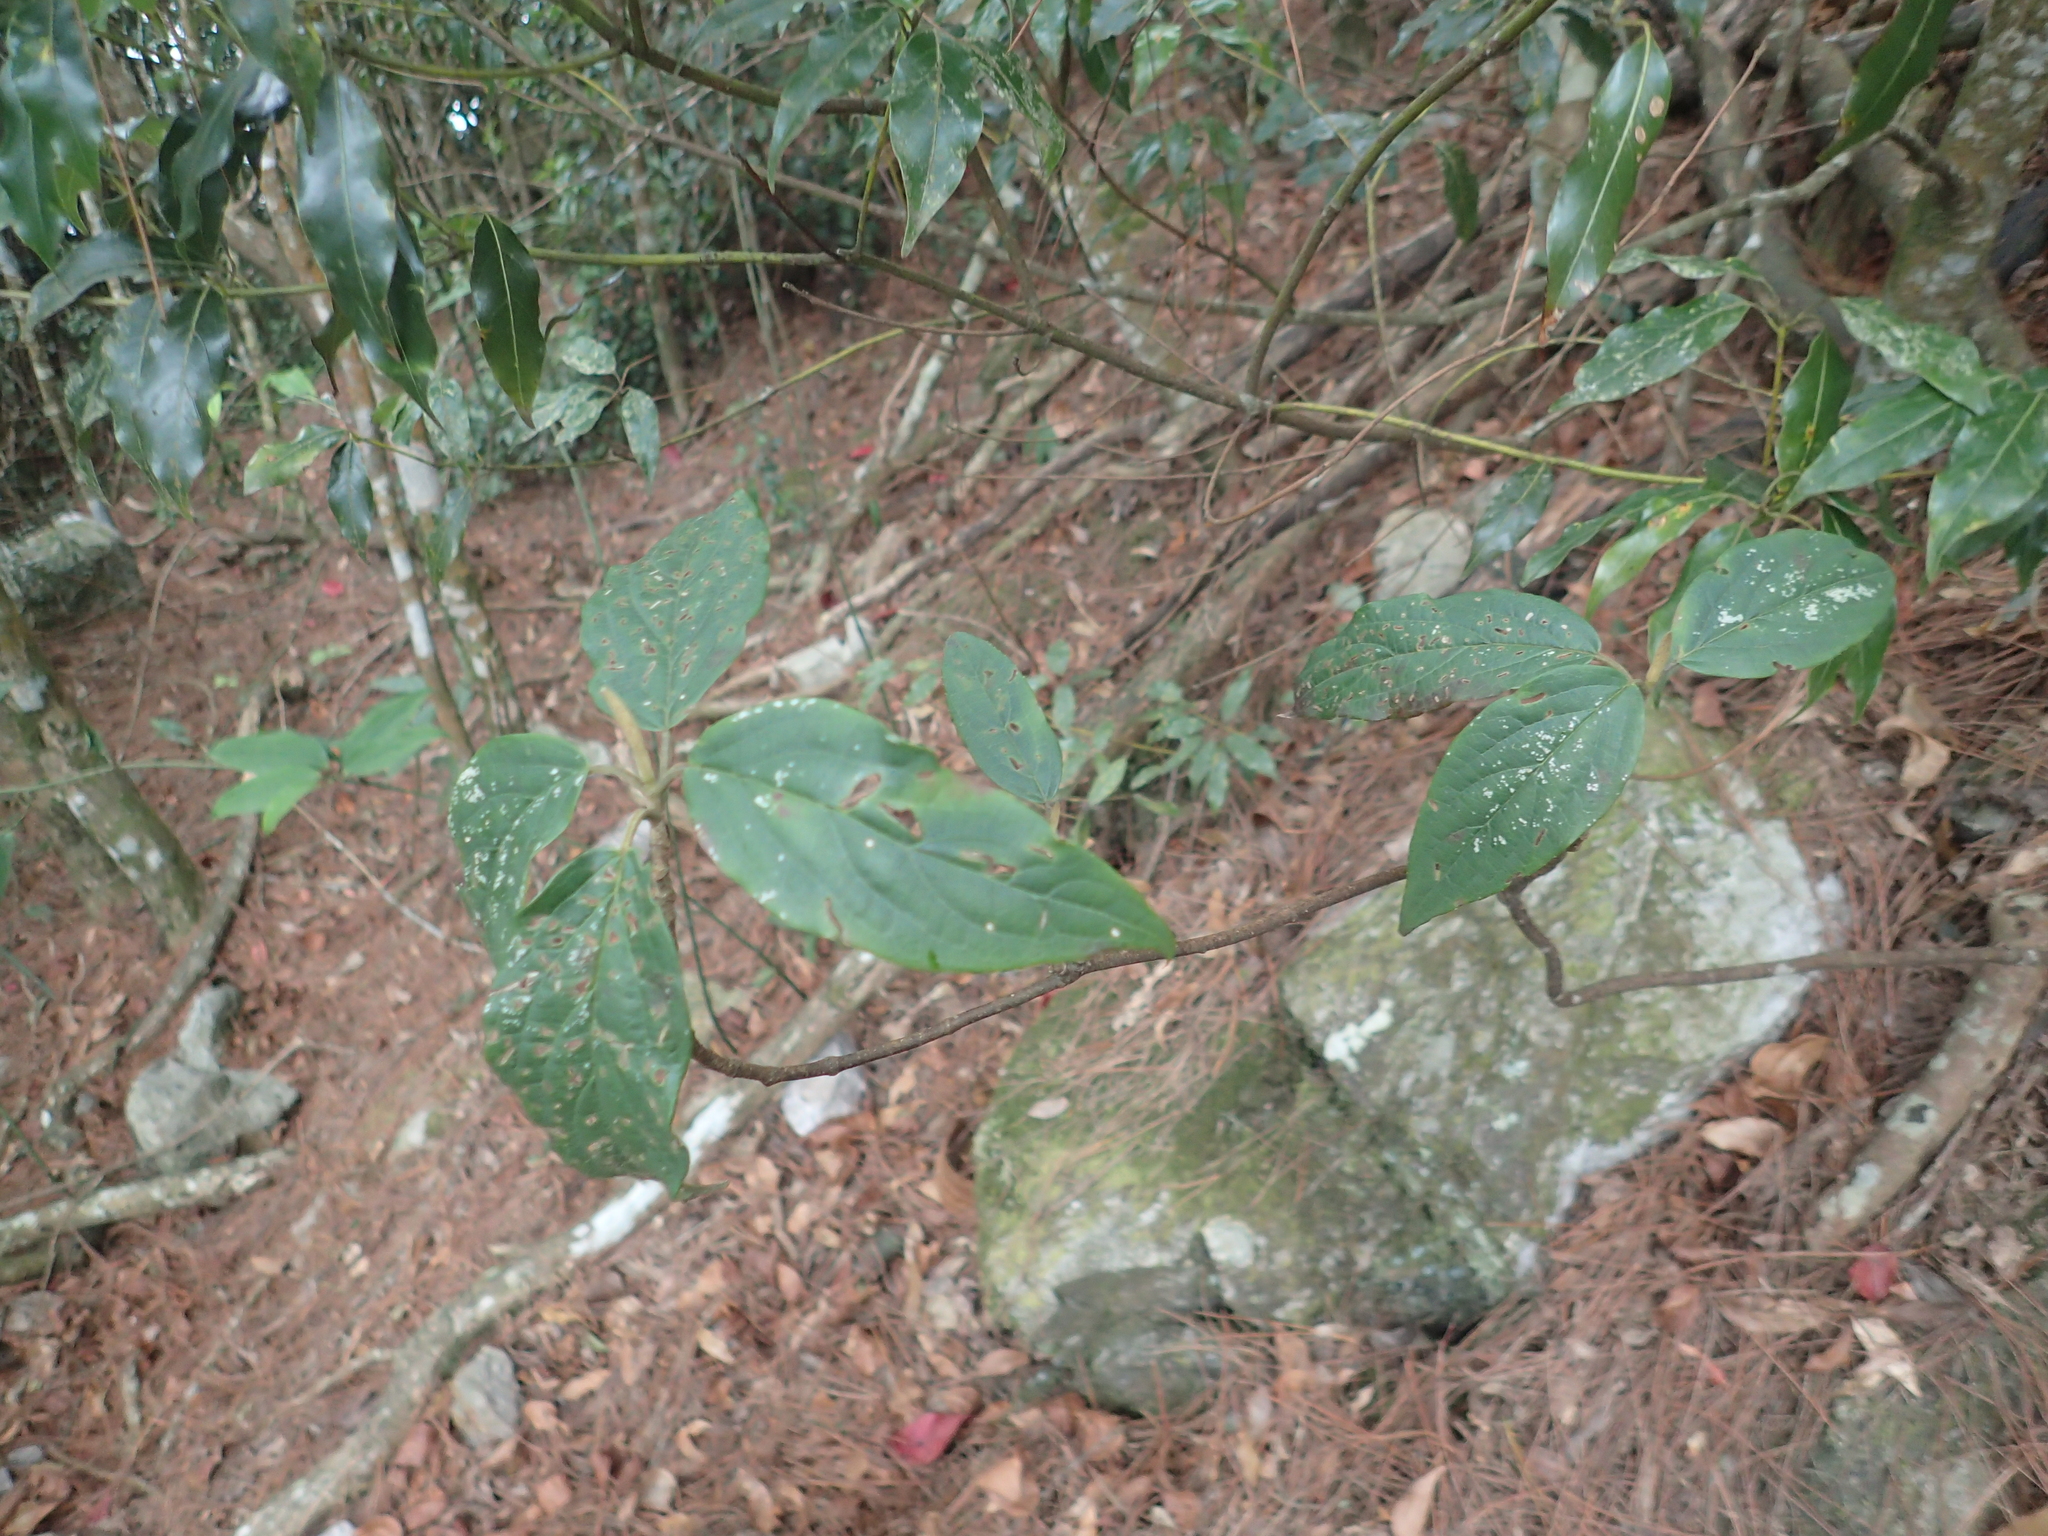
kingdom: Plantae
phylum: Tracheophyta
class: Magnoliopsida
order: Dipsacales
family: Viburnaceae
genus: Viburnum
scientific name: Viburnum urceolatum
